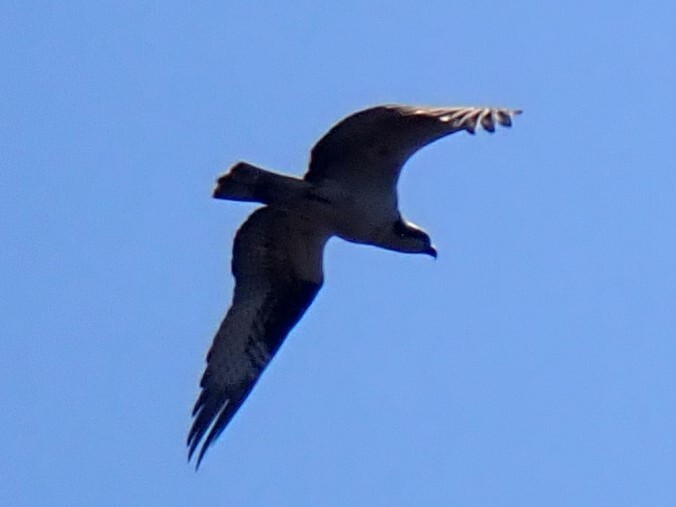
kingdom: Animalia
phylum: Chordata
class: Aves
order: Accipitriformes
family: Pandionidae
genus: Pandion
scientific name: Pandion haliaetus
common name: Osprey
